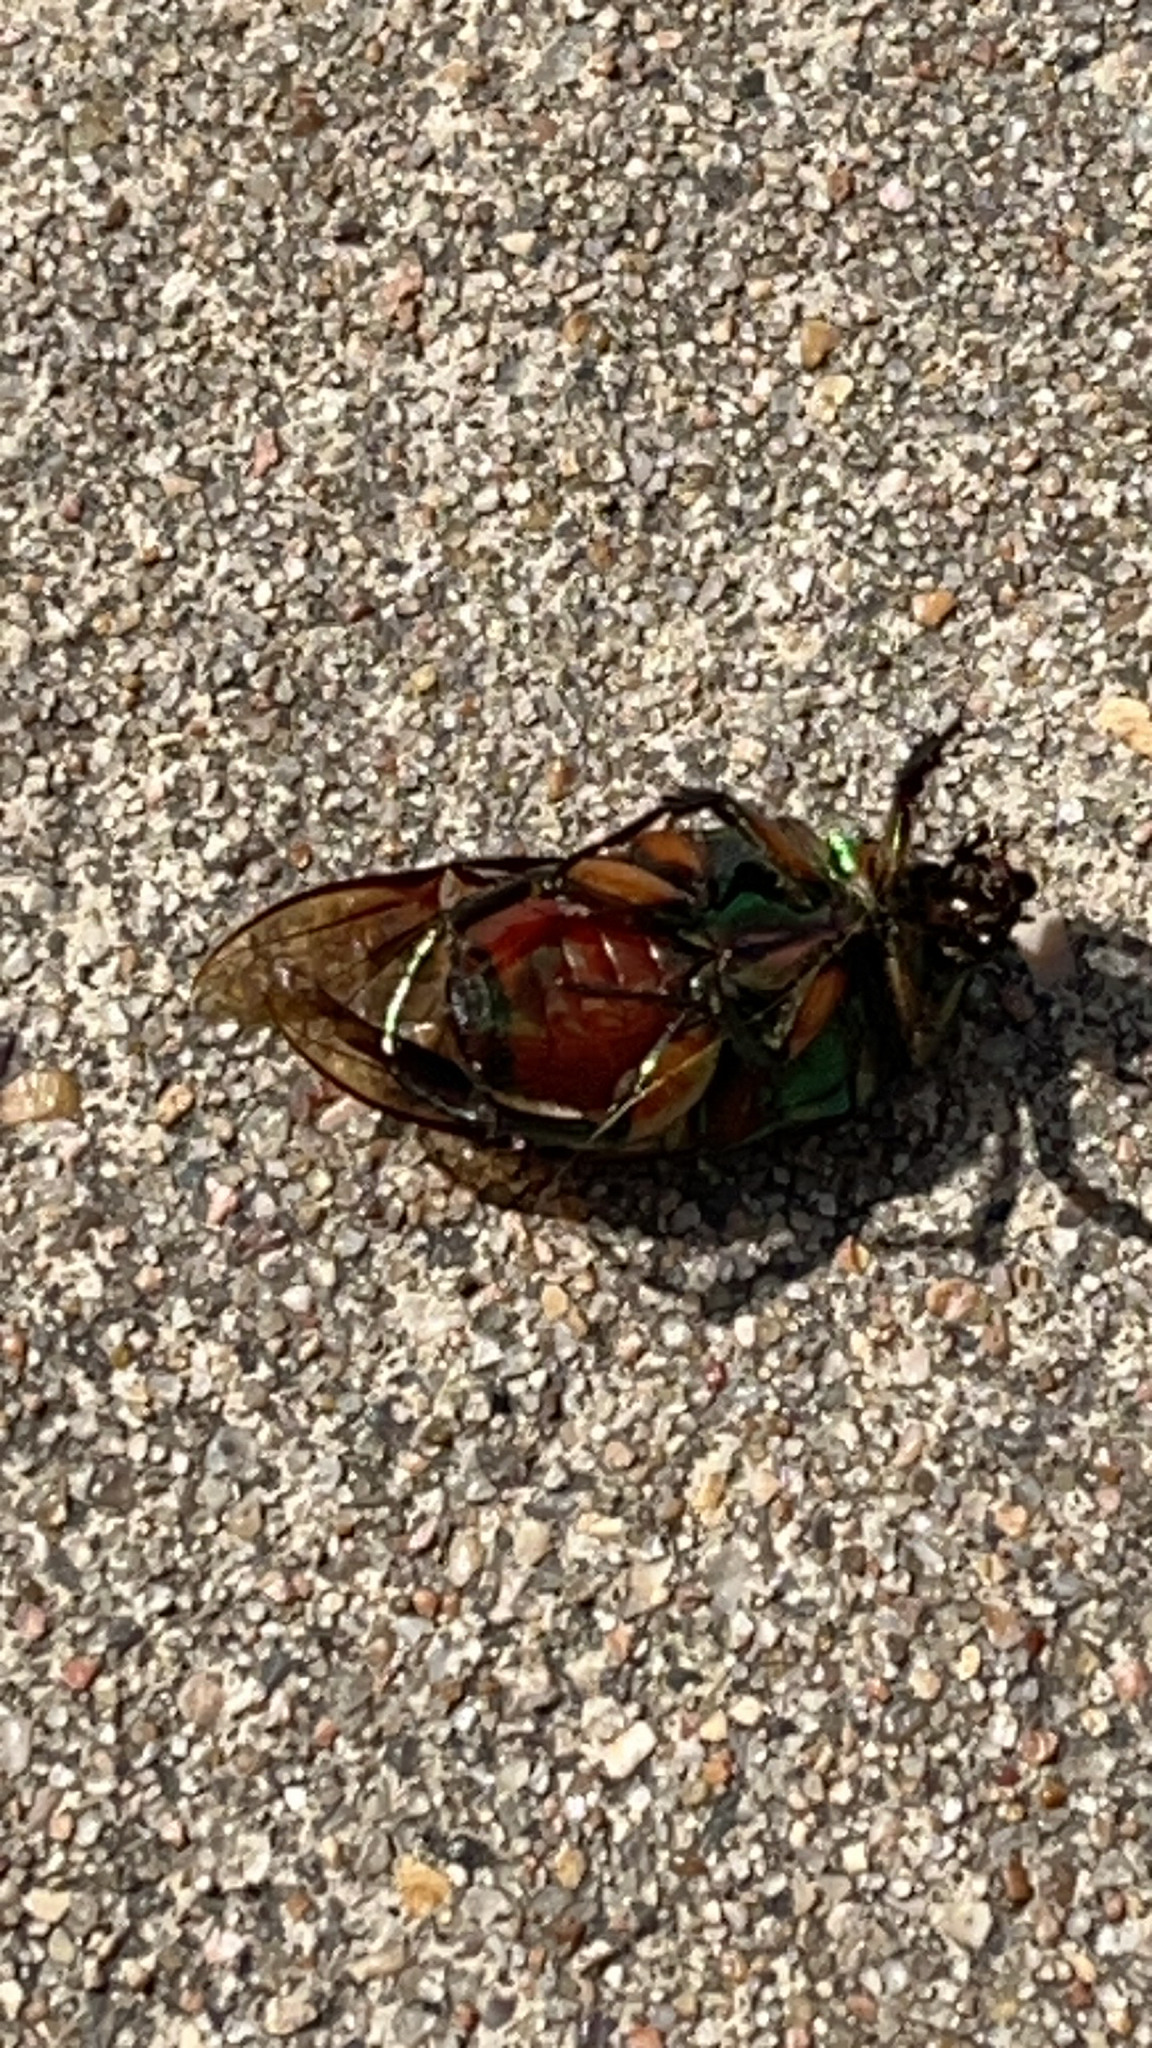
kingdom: Animalia
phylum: Arthropoda
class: Insecta
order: Coleoptera
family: Scarabaeidae
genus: Cotinis
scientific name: Cotinis nitida
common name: Common green june beetle
